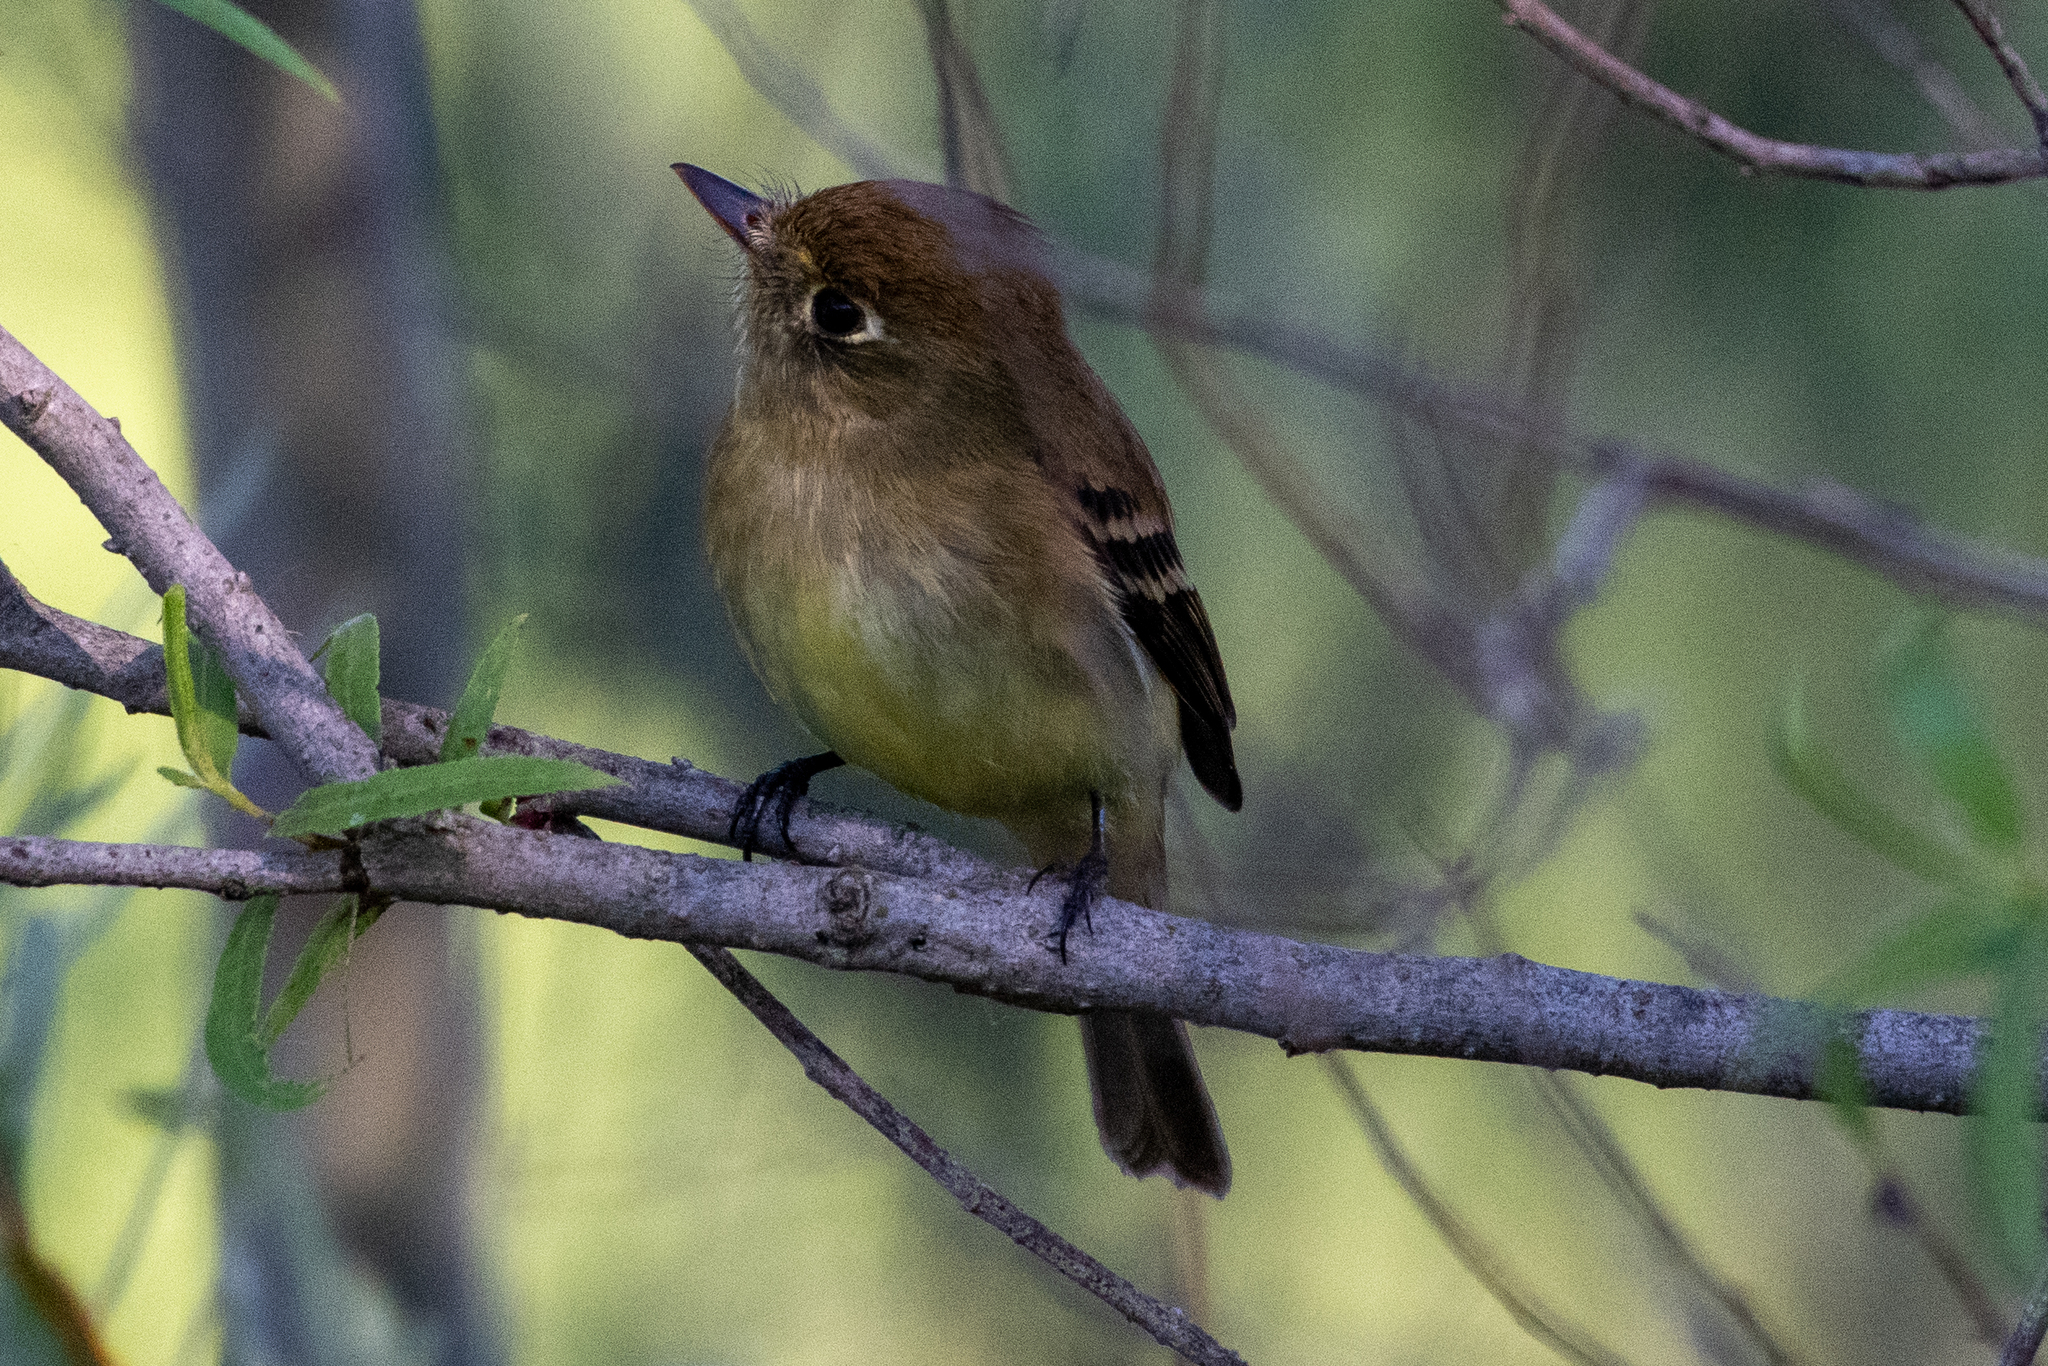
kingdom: Animalia
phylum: Chordata
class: Aves
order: Passeriformes
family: Tyrannidae
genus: Empidonax
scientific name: Empidonax difficilis
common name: Pacific-slope flycatcher
